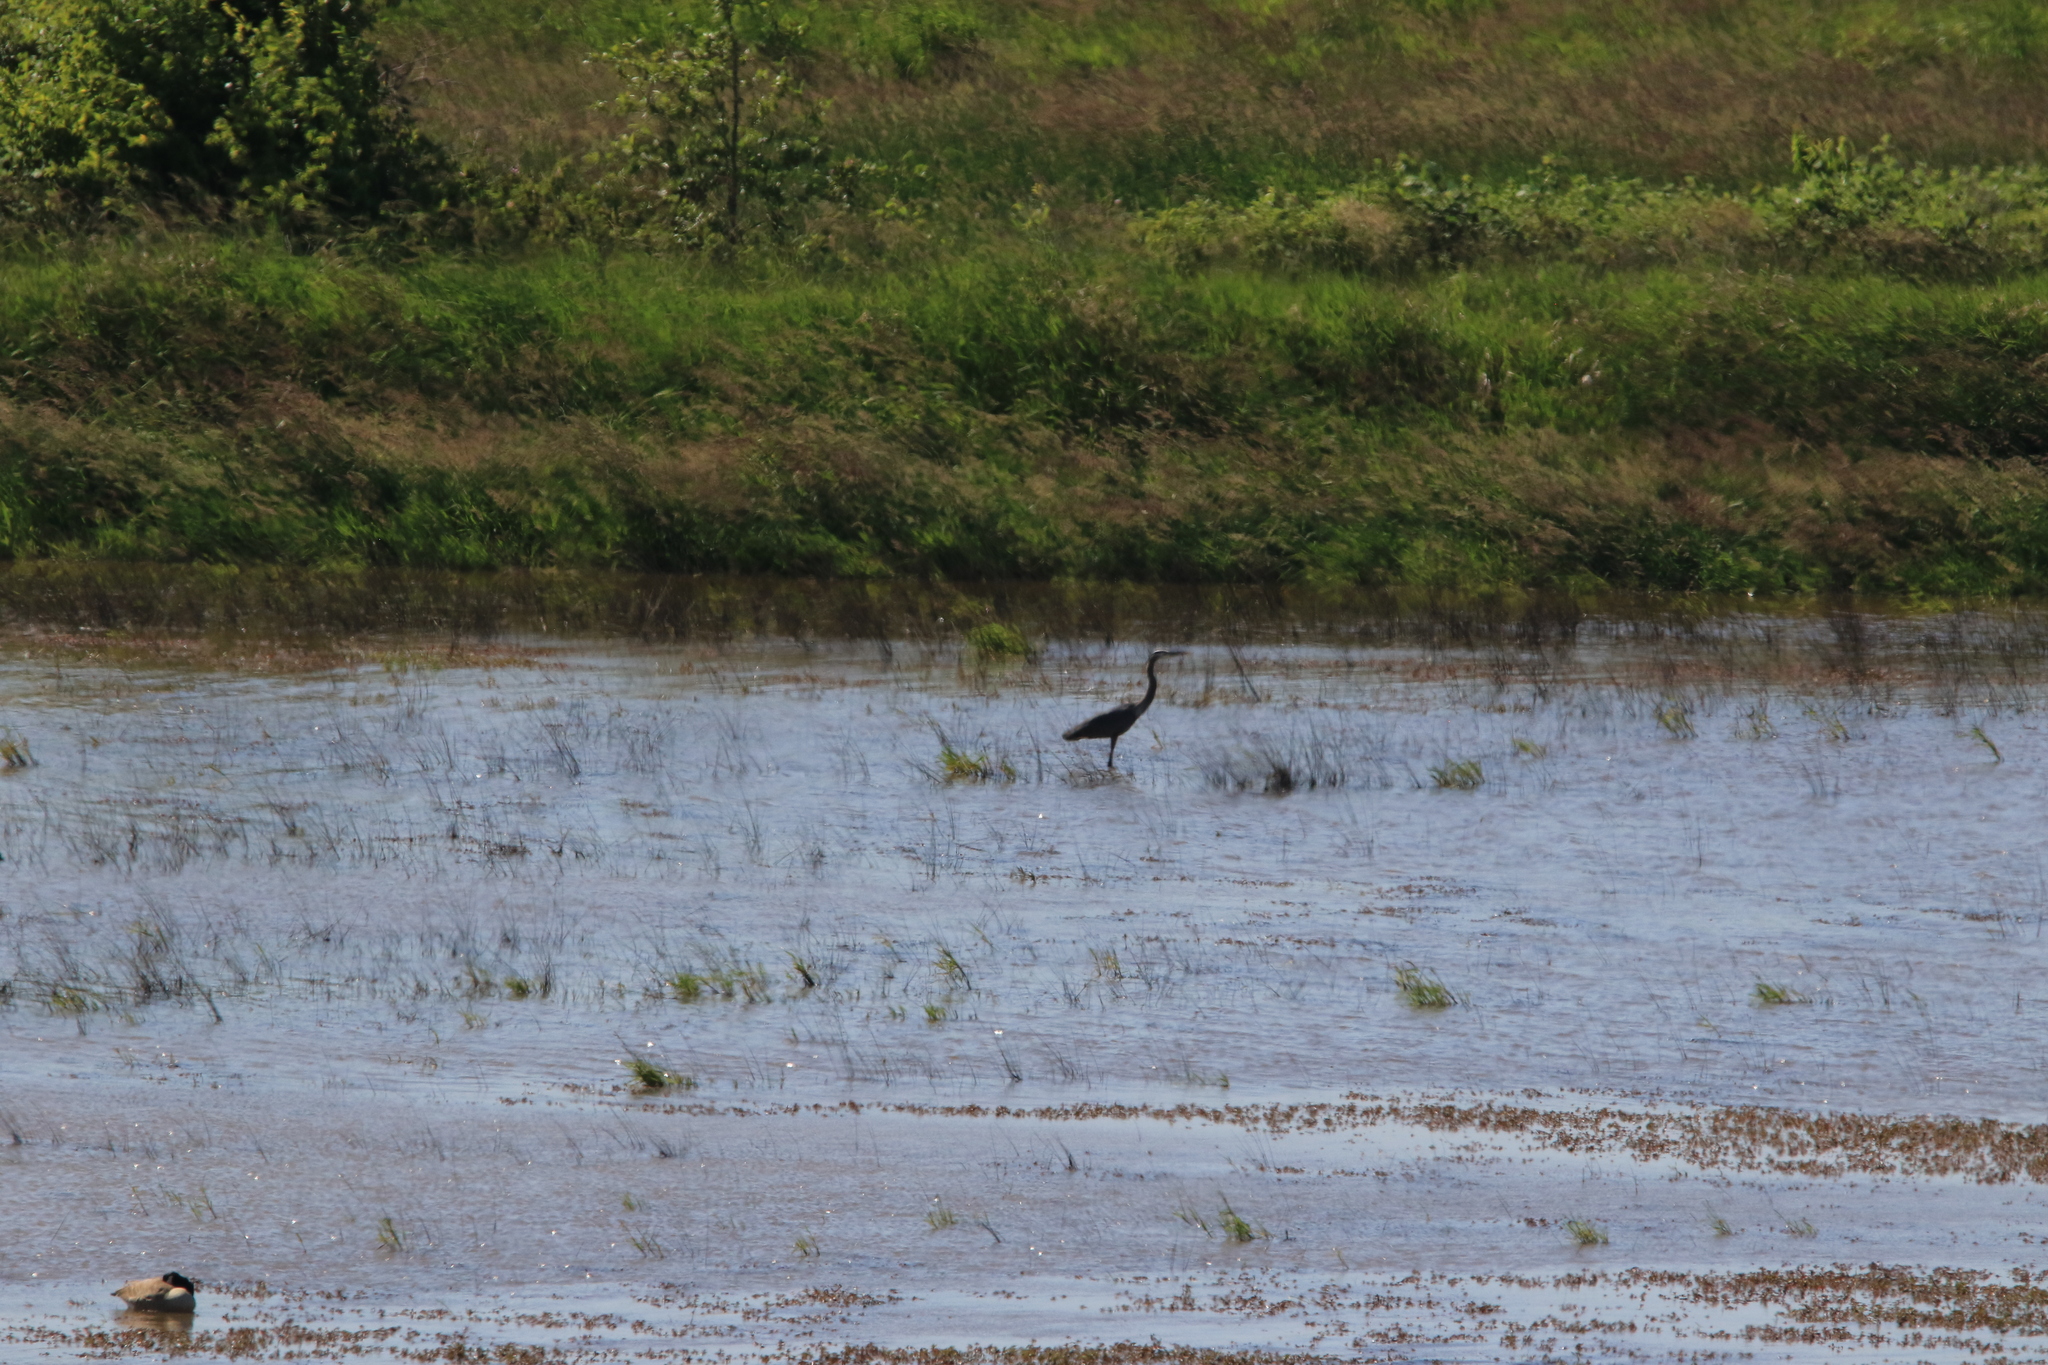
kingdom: Animalia
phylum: Chordata
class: Aves
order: Pelecaniformes
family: Ardeidae
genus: Ardea
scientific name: Ardea herodias
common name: Great blue heron
